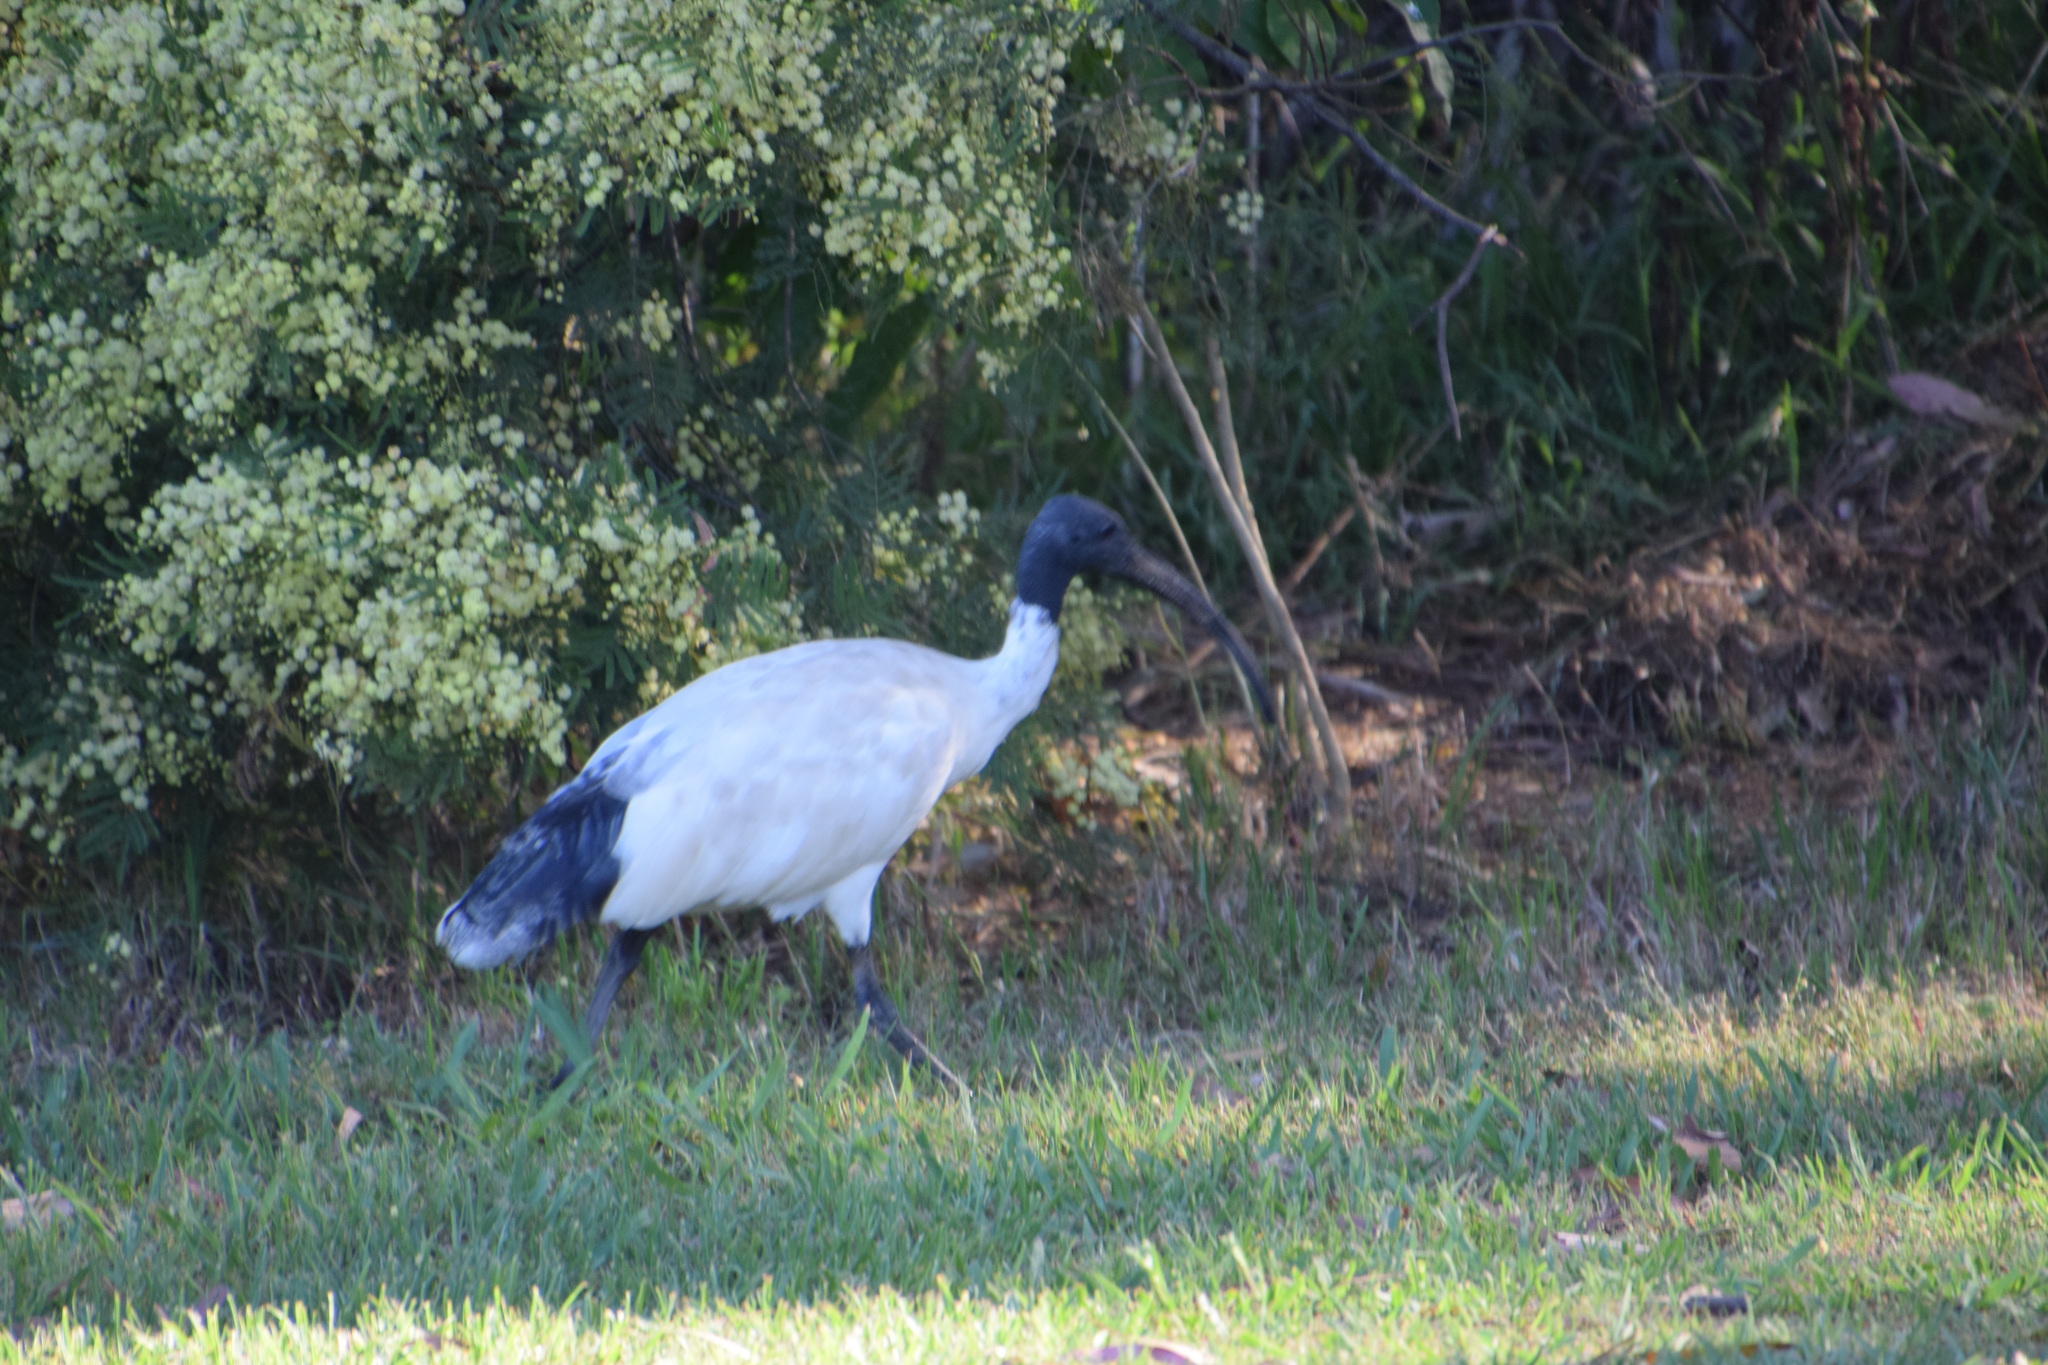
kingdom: Animalia
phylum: Chordata
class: Aves
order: Pelecaniformes
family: Threskiornithidae
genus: Threskiornis
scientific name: Threskiornis molucca
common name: Australian white ibis
